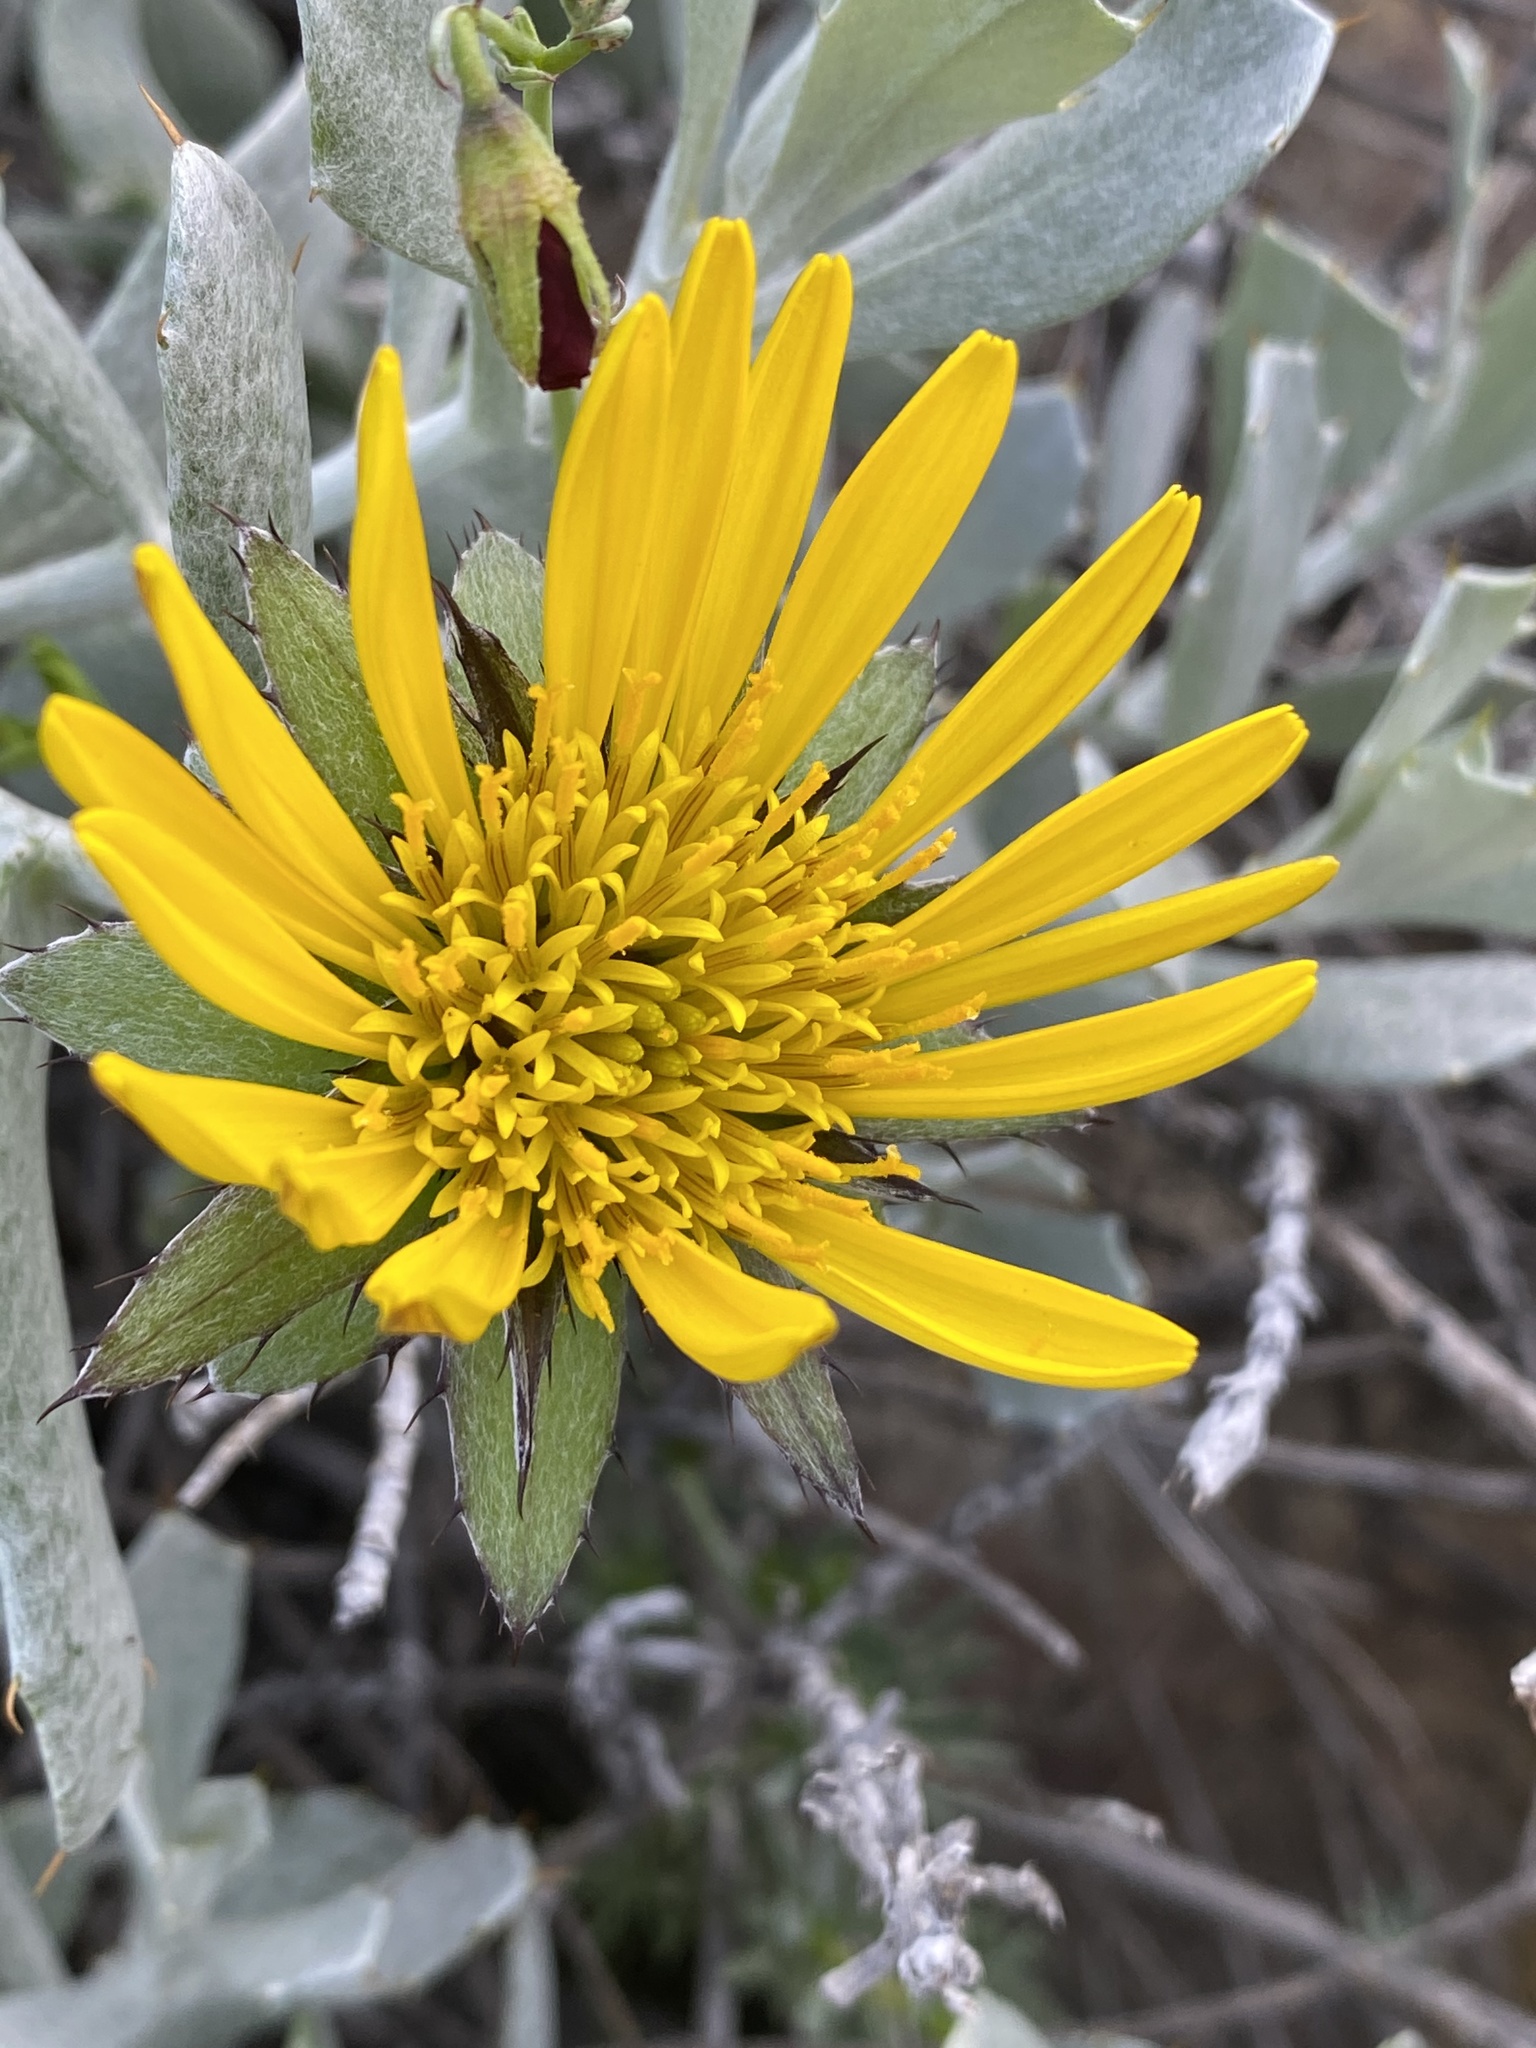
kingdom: Plantae
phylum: Tracheophyta
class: Magnoliopsida
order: Asterales
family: Asteraceae
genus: Berkheya
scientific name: Berkheya cuneata
